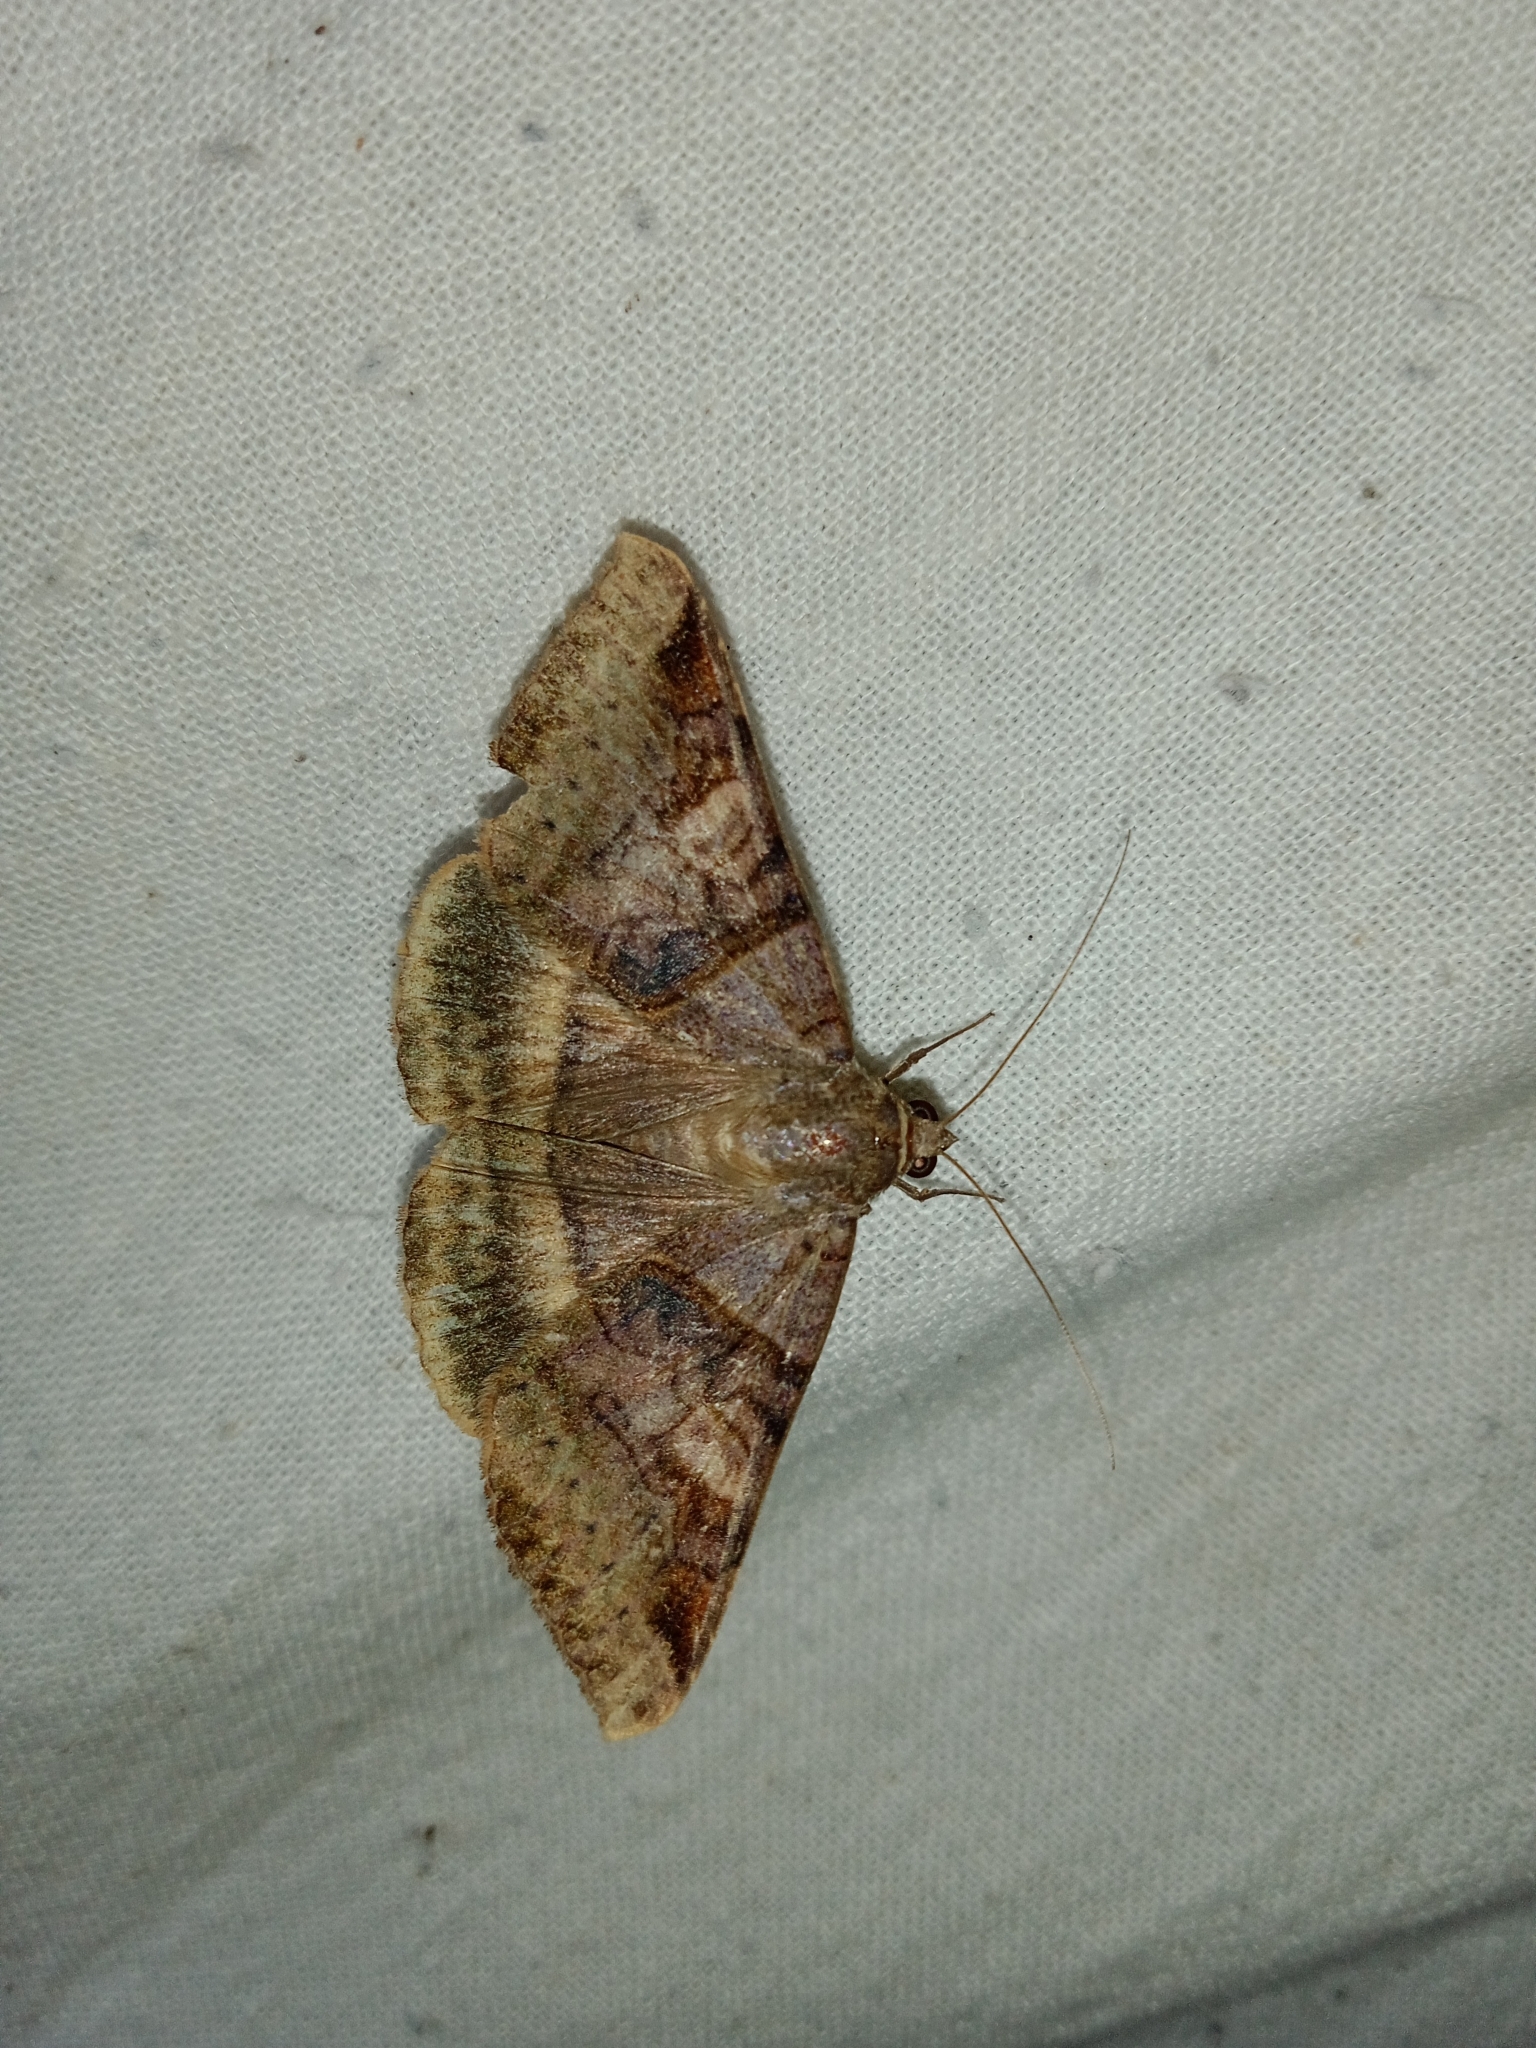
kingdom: Animalia
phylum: Arthropoda
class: Insecta
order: Lepidoptera
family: Erebidae
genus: Mocis
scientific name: Mocis undata
